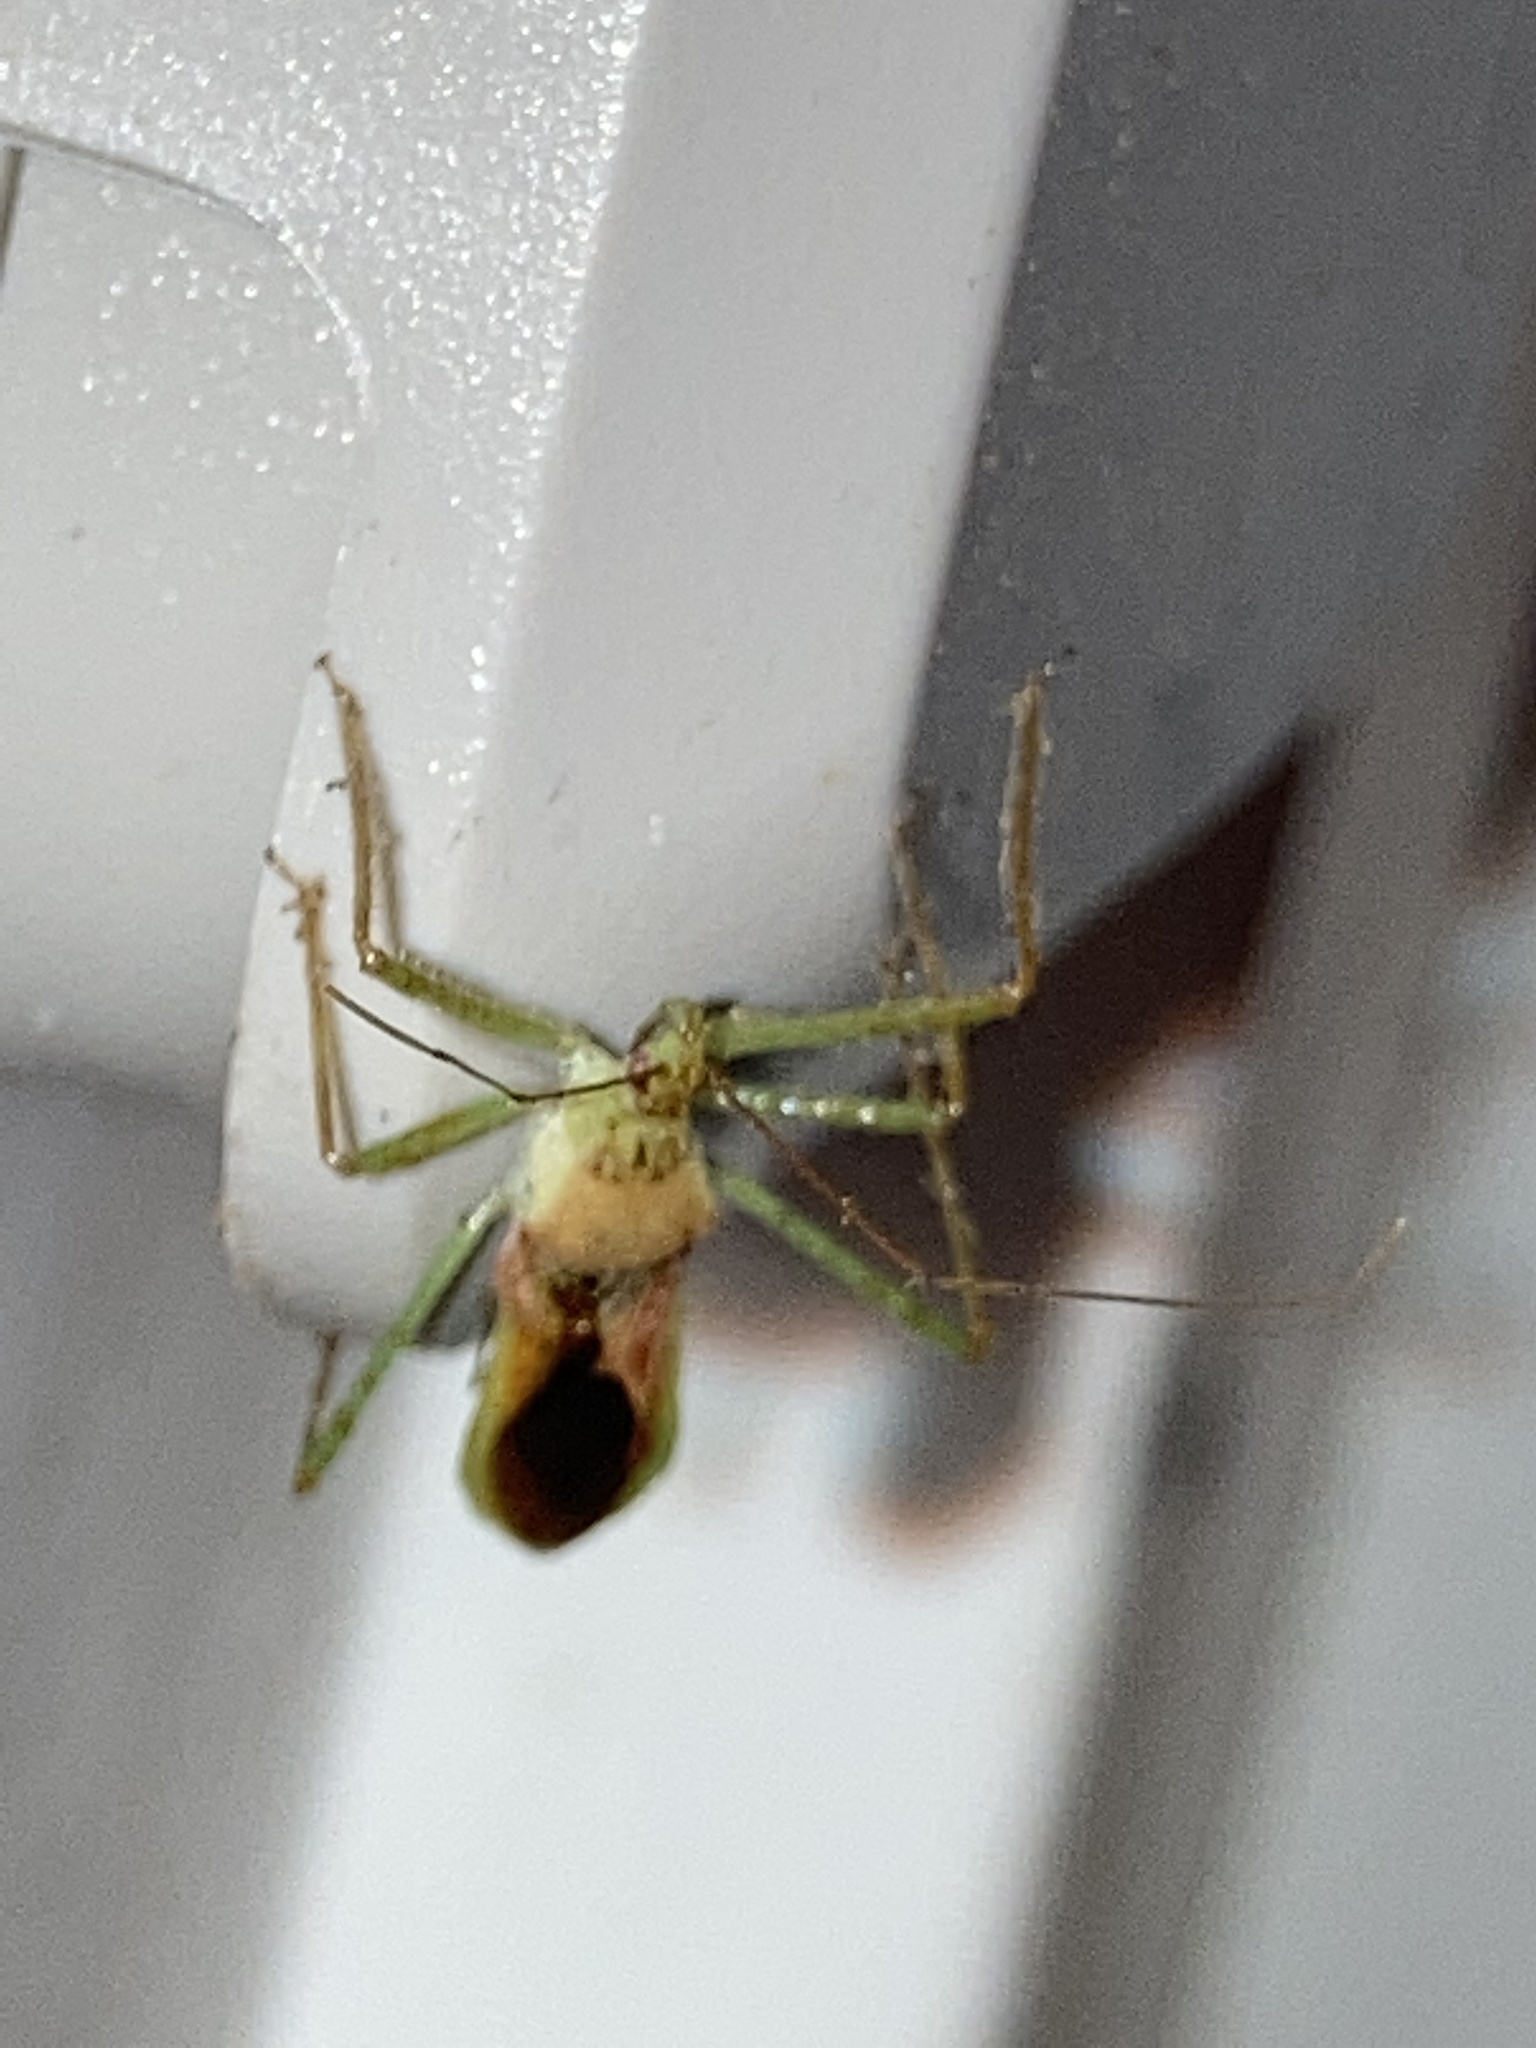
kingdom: Animalia
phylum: Arthropoda
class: Insecta
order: Hemiptera
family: Reduviidae
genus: Zelus
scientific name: Zelus renardii
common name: Assassin bug
